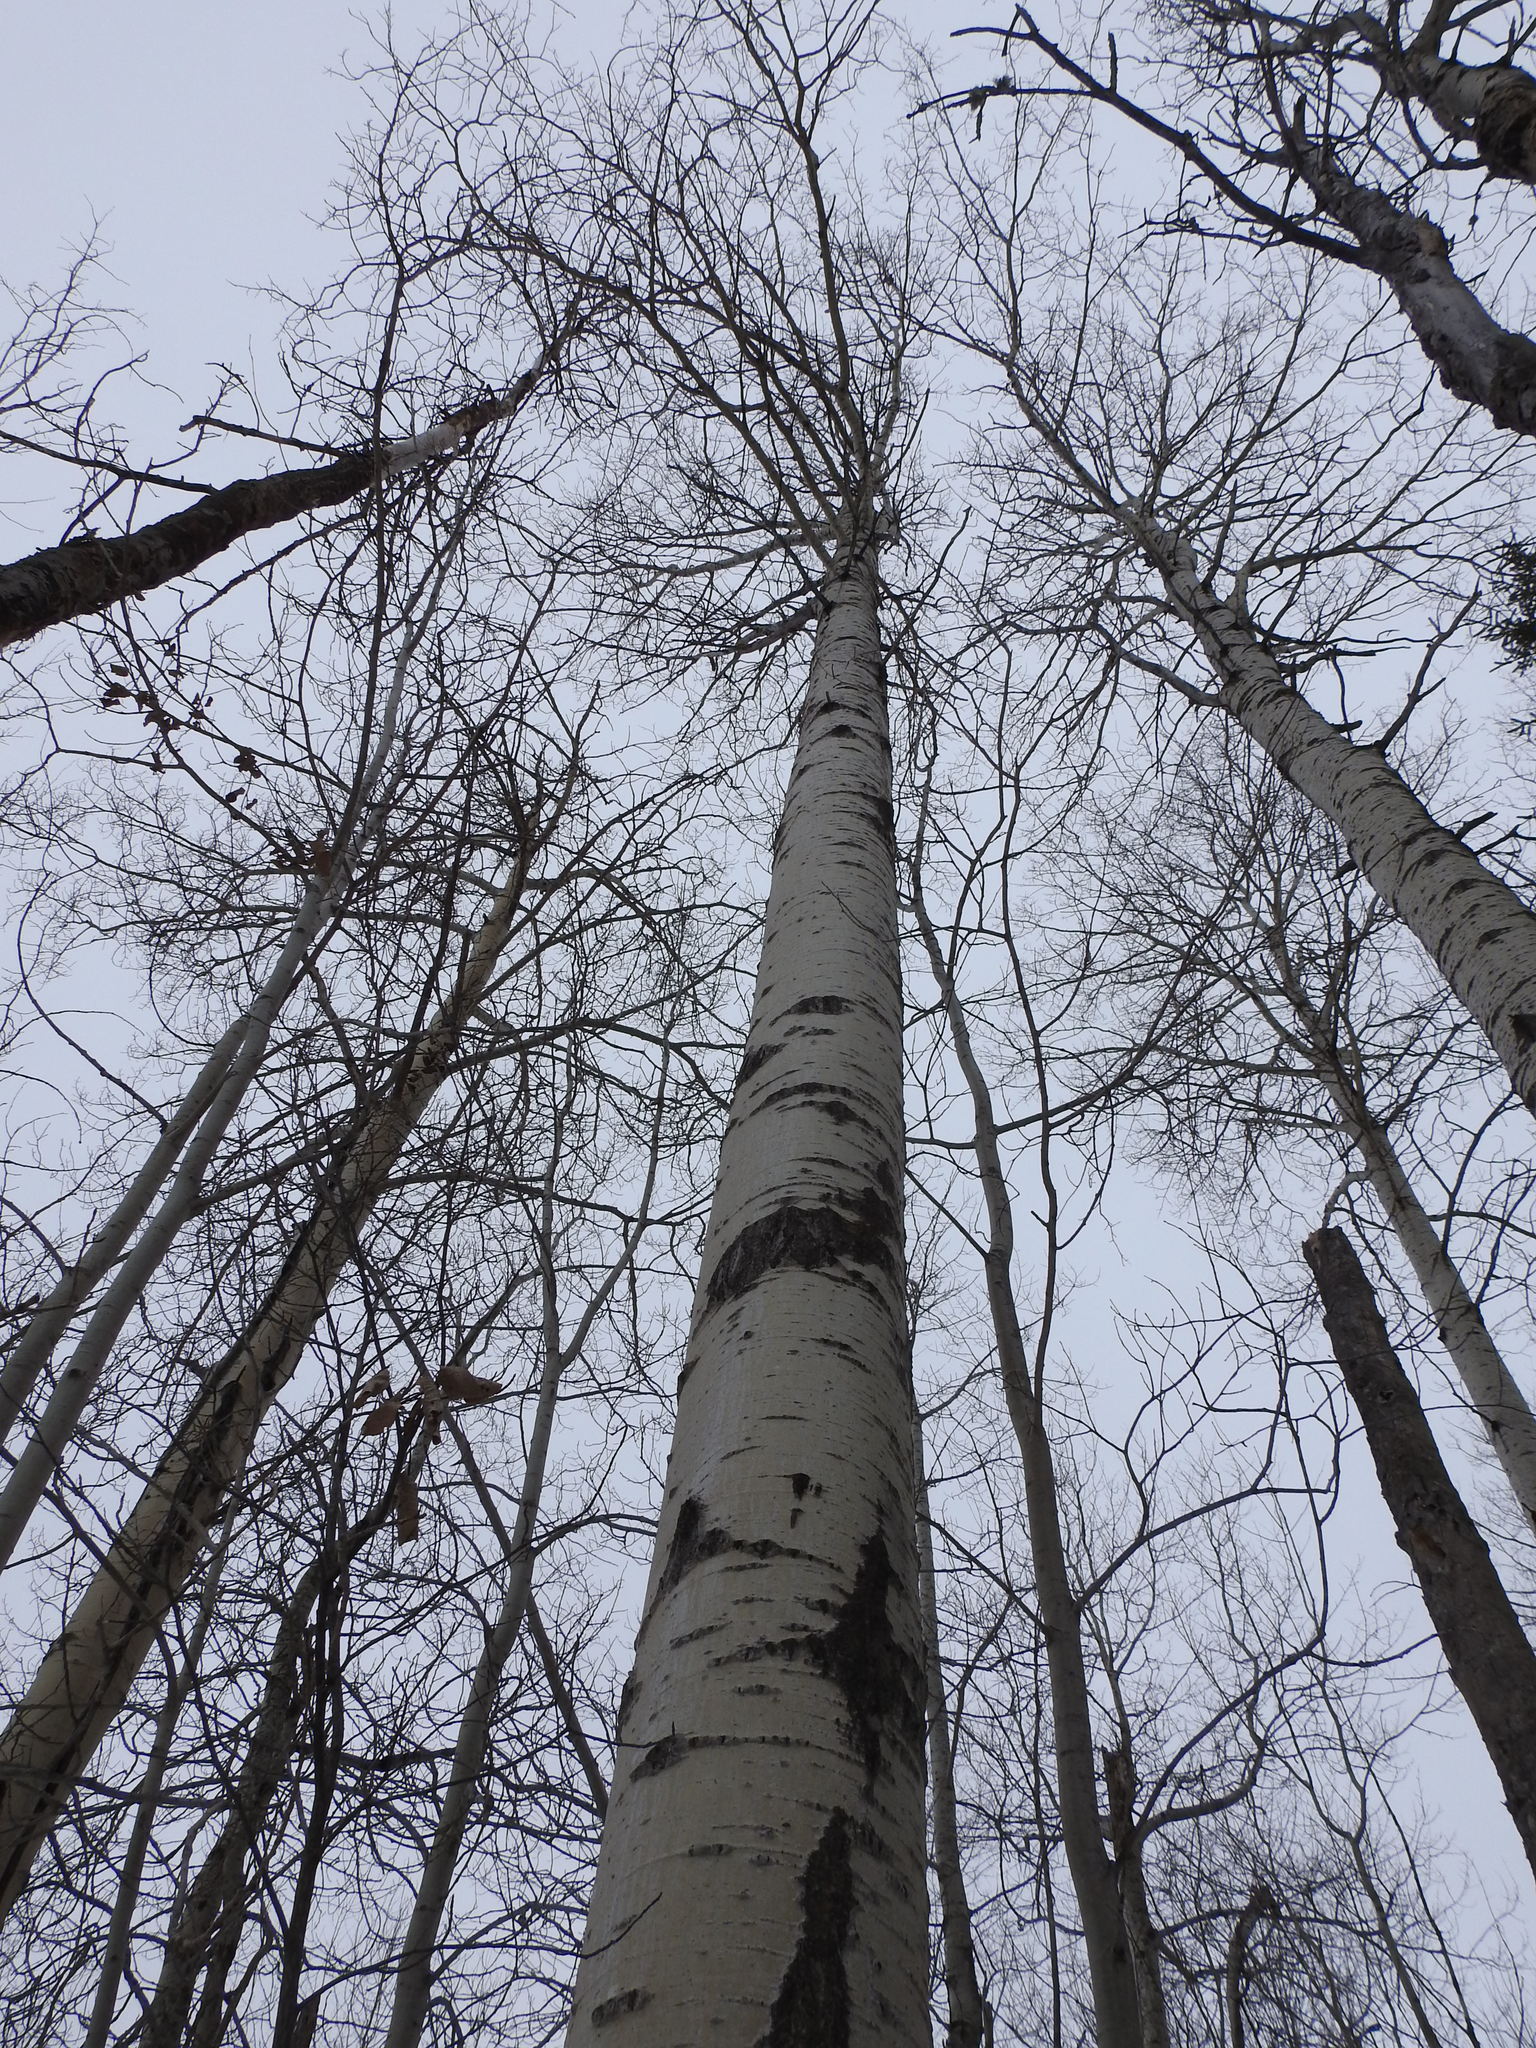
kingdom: Plantae
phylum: Tracheophyta
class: Magnoliopsida
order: Malpighiales
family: Salicaceae
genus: Populus
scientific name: Populus tremuloides
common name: Quaking aspen
